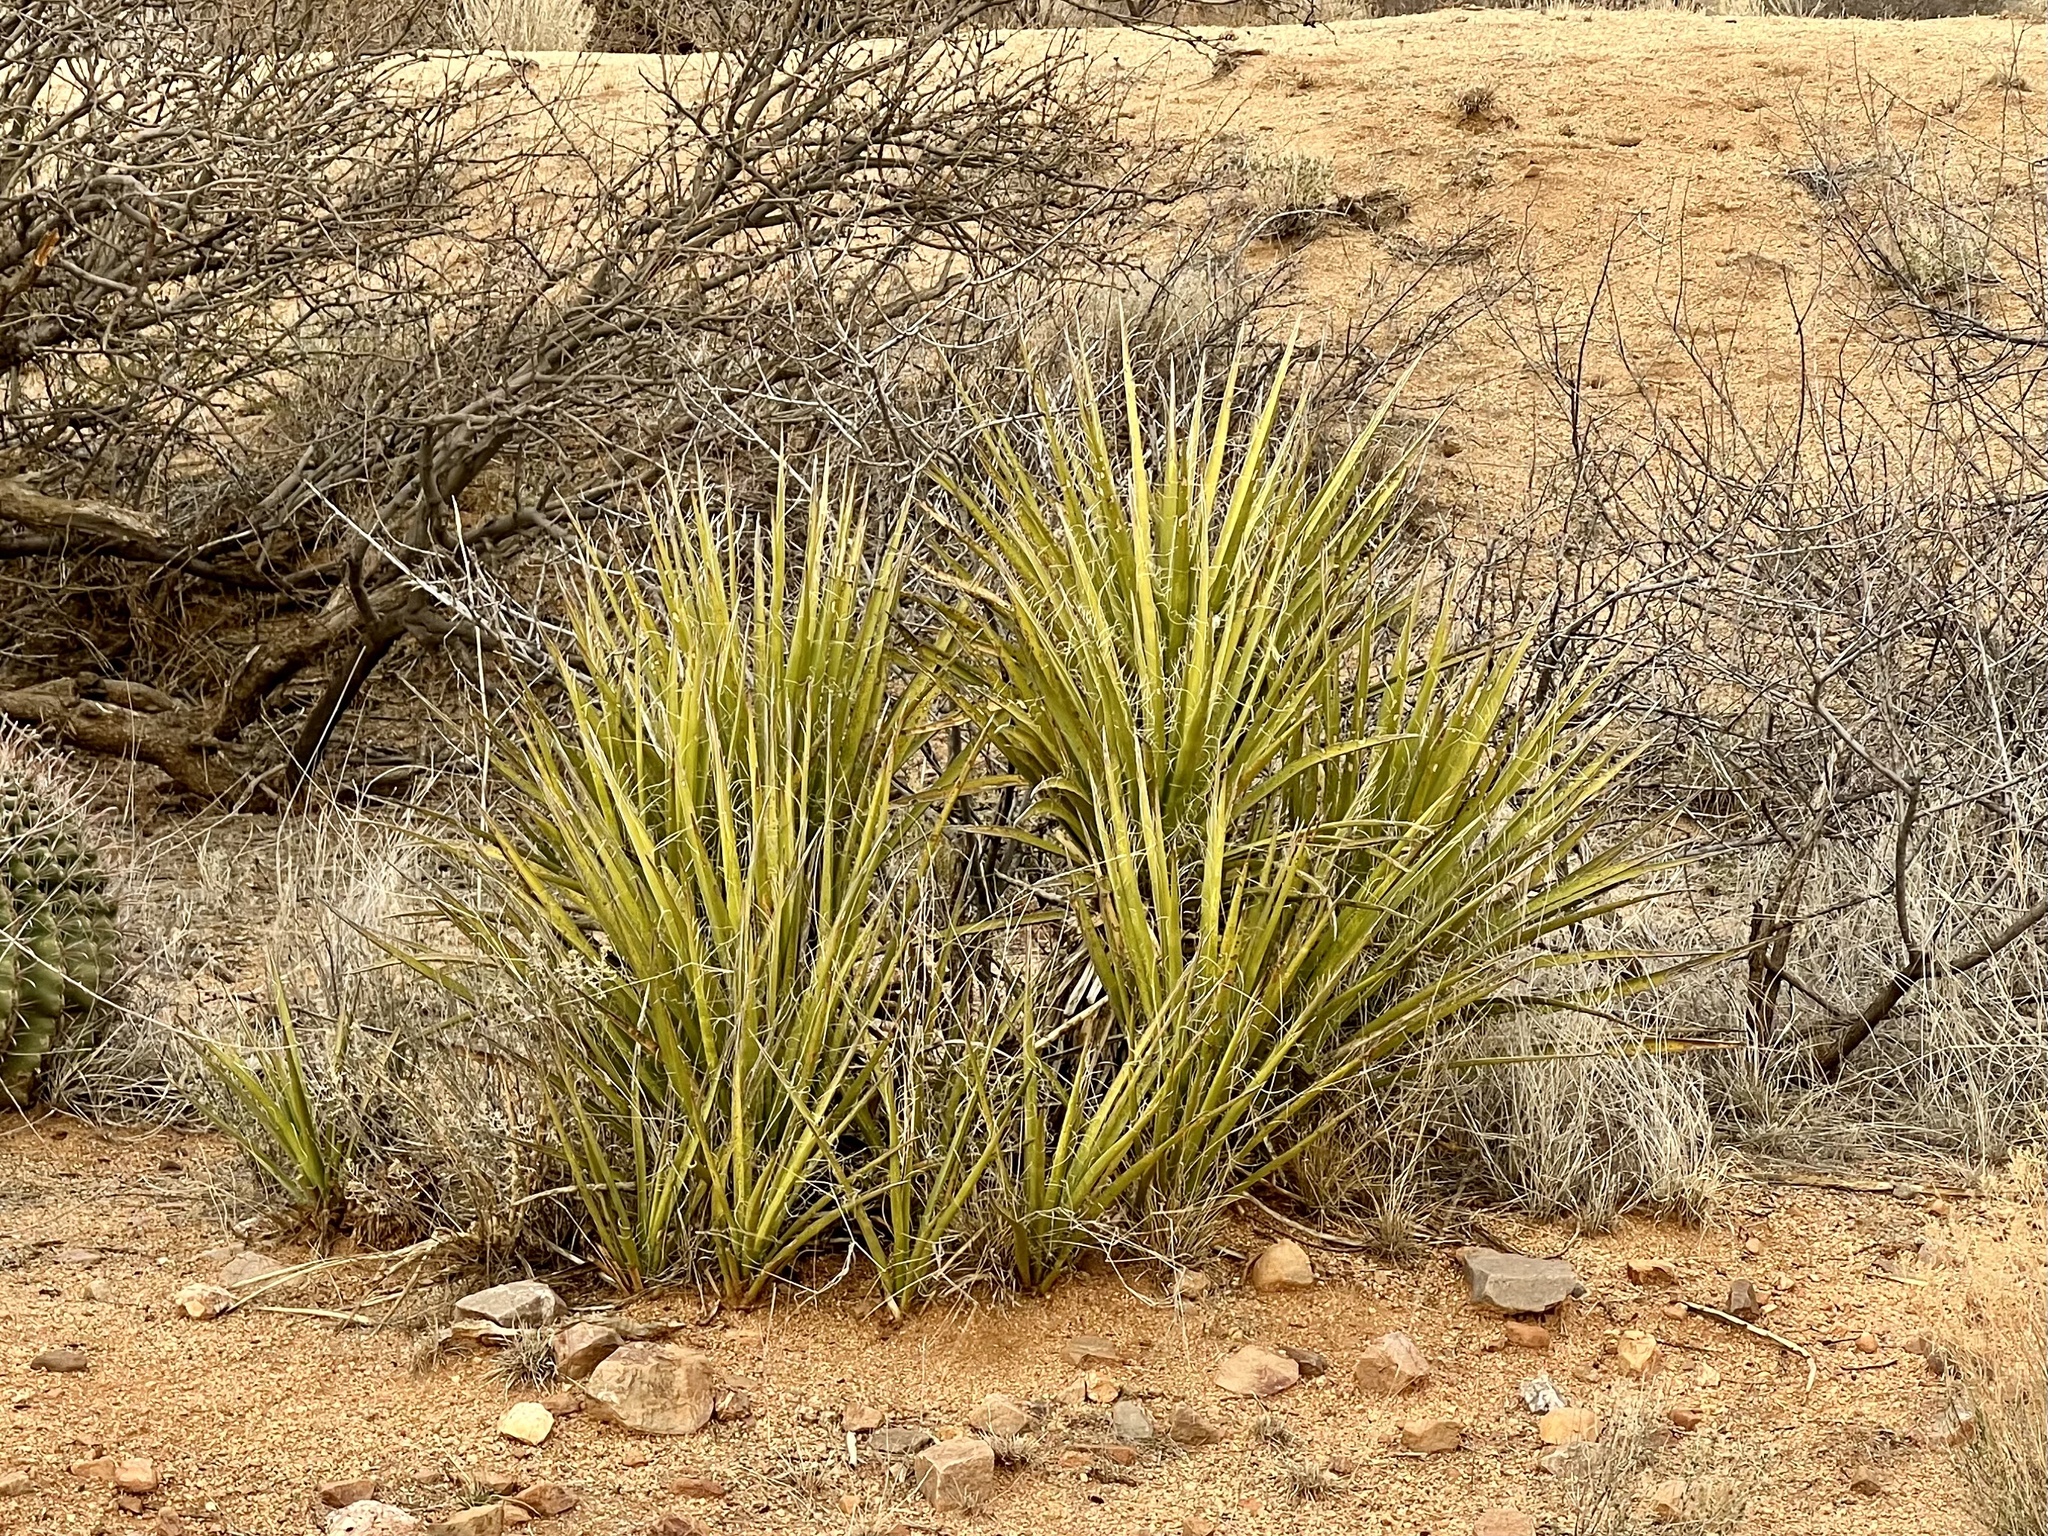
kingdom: Plantae
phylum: Tracheophyta
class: Liliopsida
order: Asparagales
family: Asparagaceae
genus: Yucca
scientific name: Yucca baccata
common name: Banana yucca
